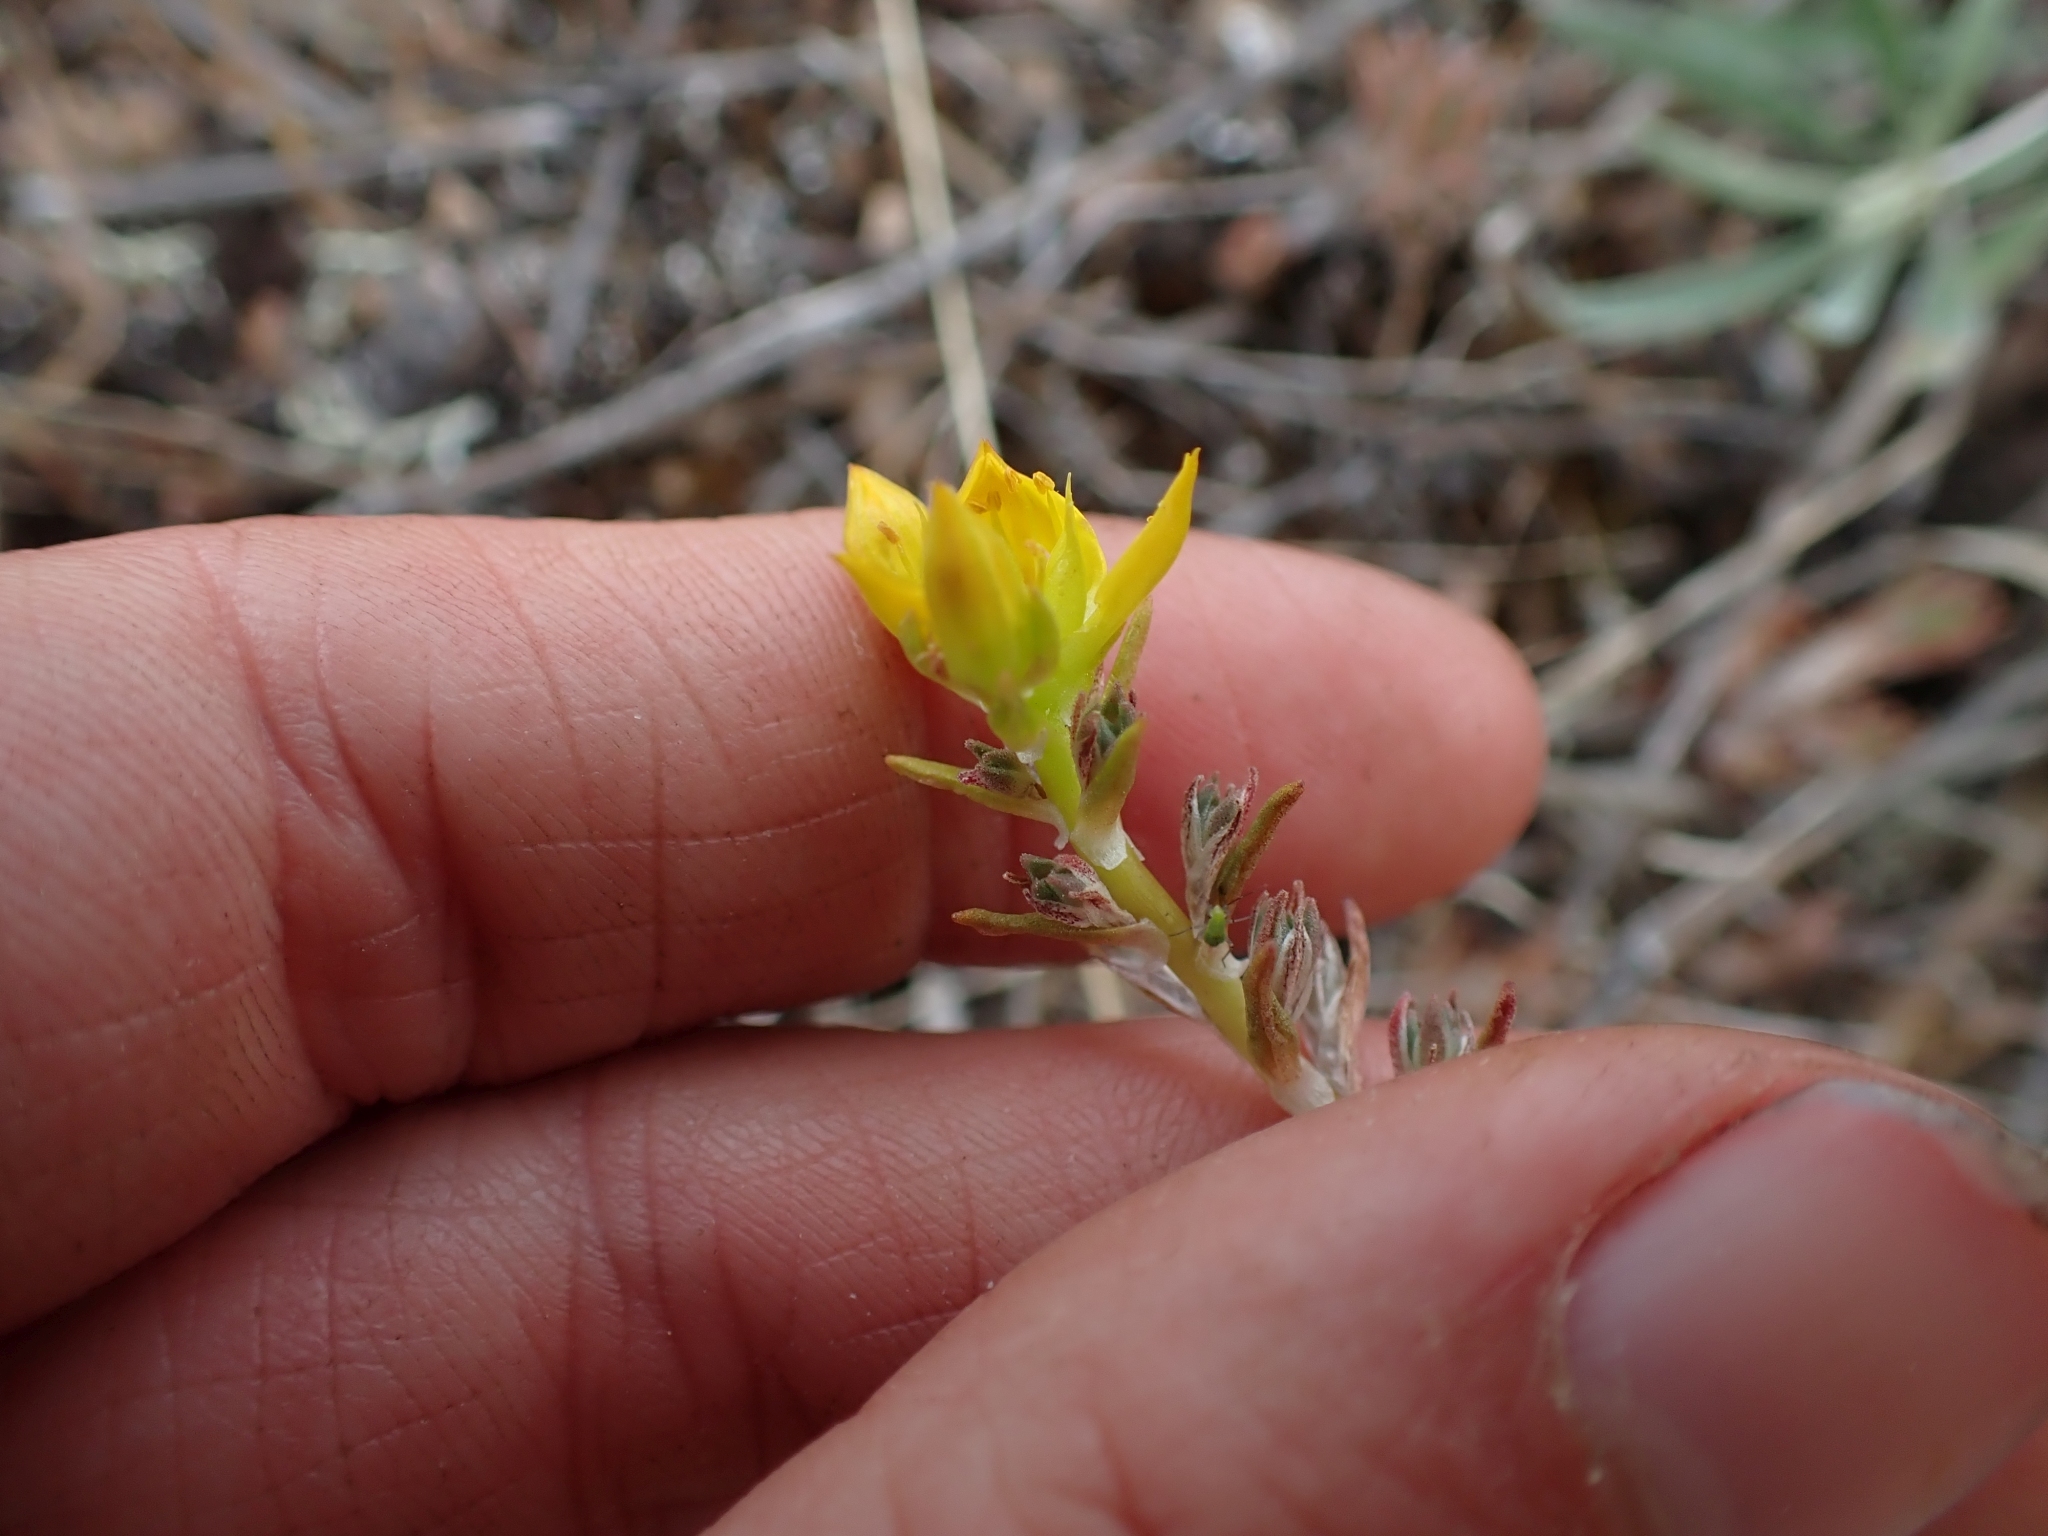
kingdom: Plantae
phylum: Tracheophyta
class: Magnoliopsida
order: Saxifragales
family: Crassulaceae
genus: Sedum
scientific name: Sedum stenopetalum
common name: Narrow-petaled stonecrop
